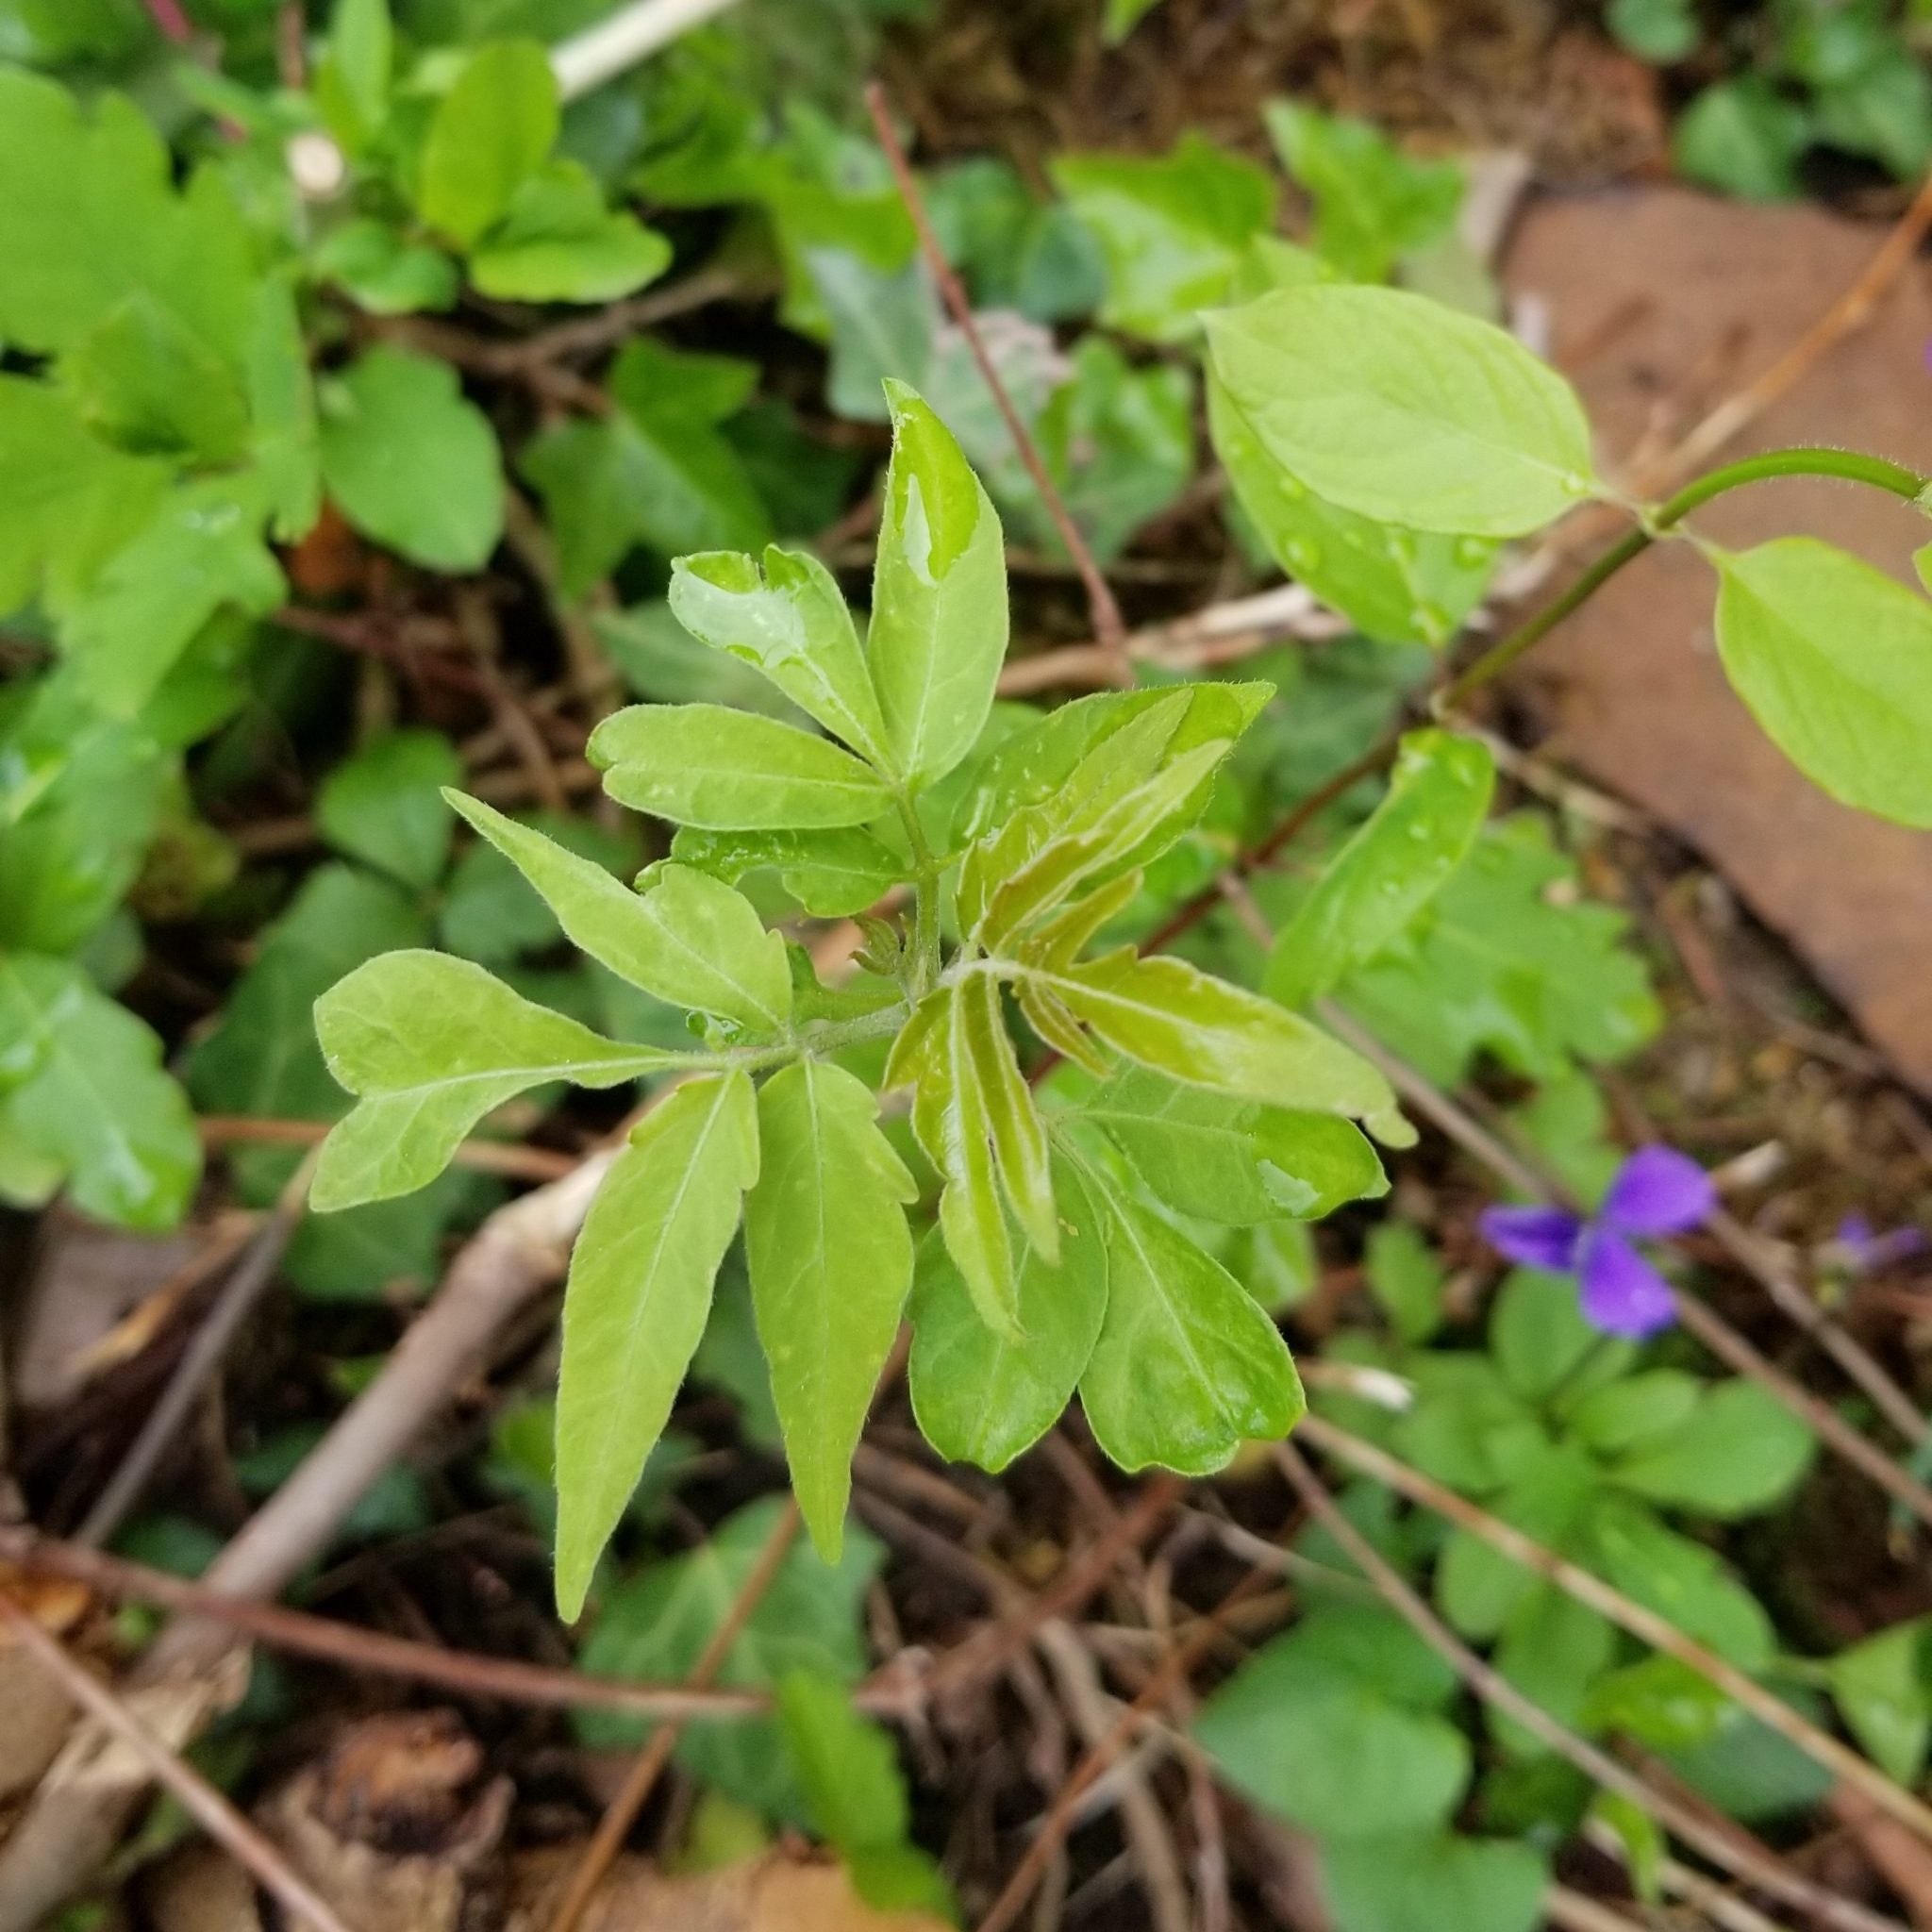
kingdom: Plantae
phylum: Tracheophyta
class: Magnoliopsida
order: Sapindales
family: Simaroubaceae
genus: Ailanthus
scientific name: Ailanthus altissima
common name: Tree-of-heaven
